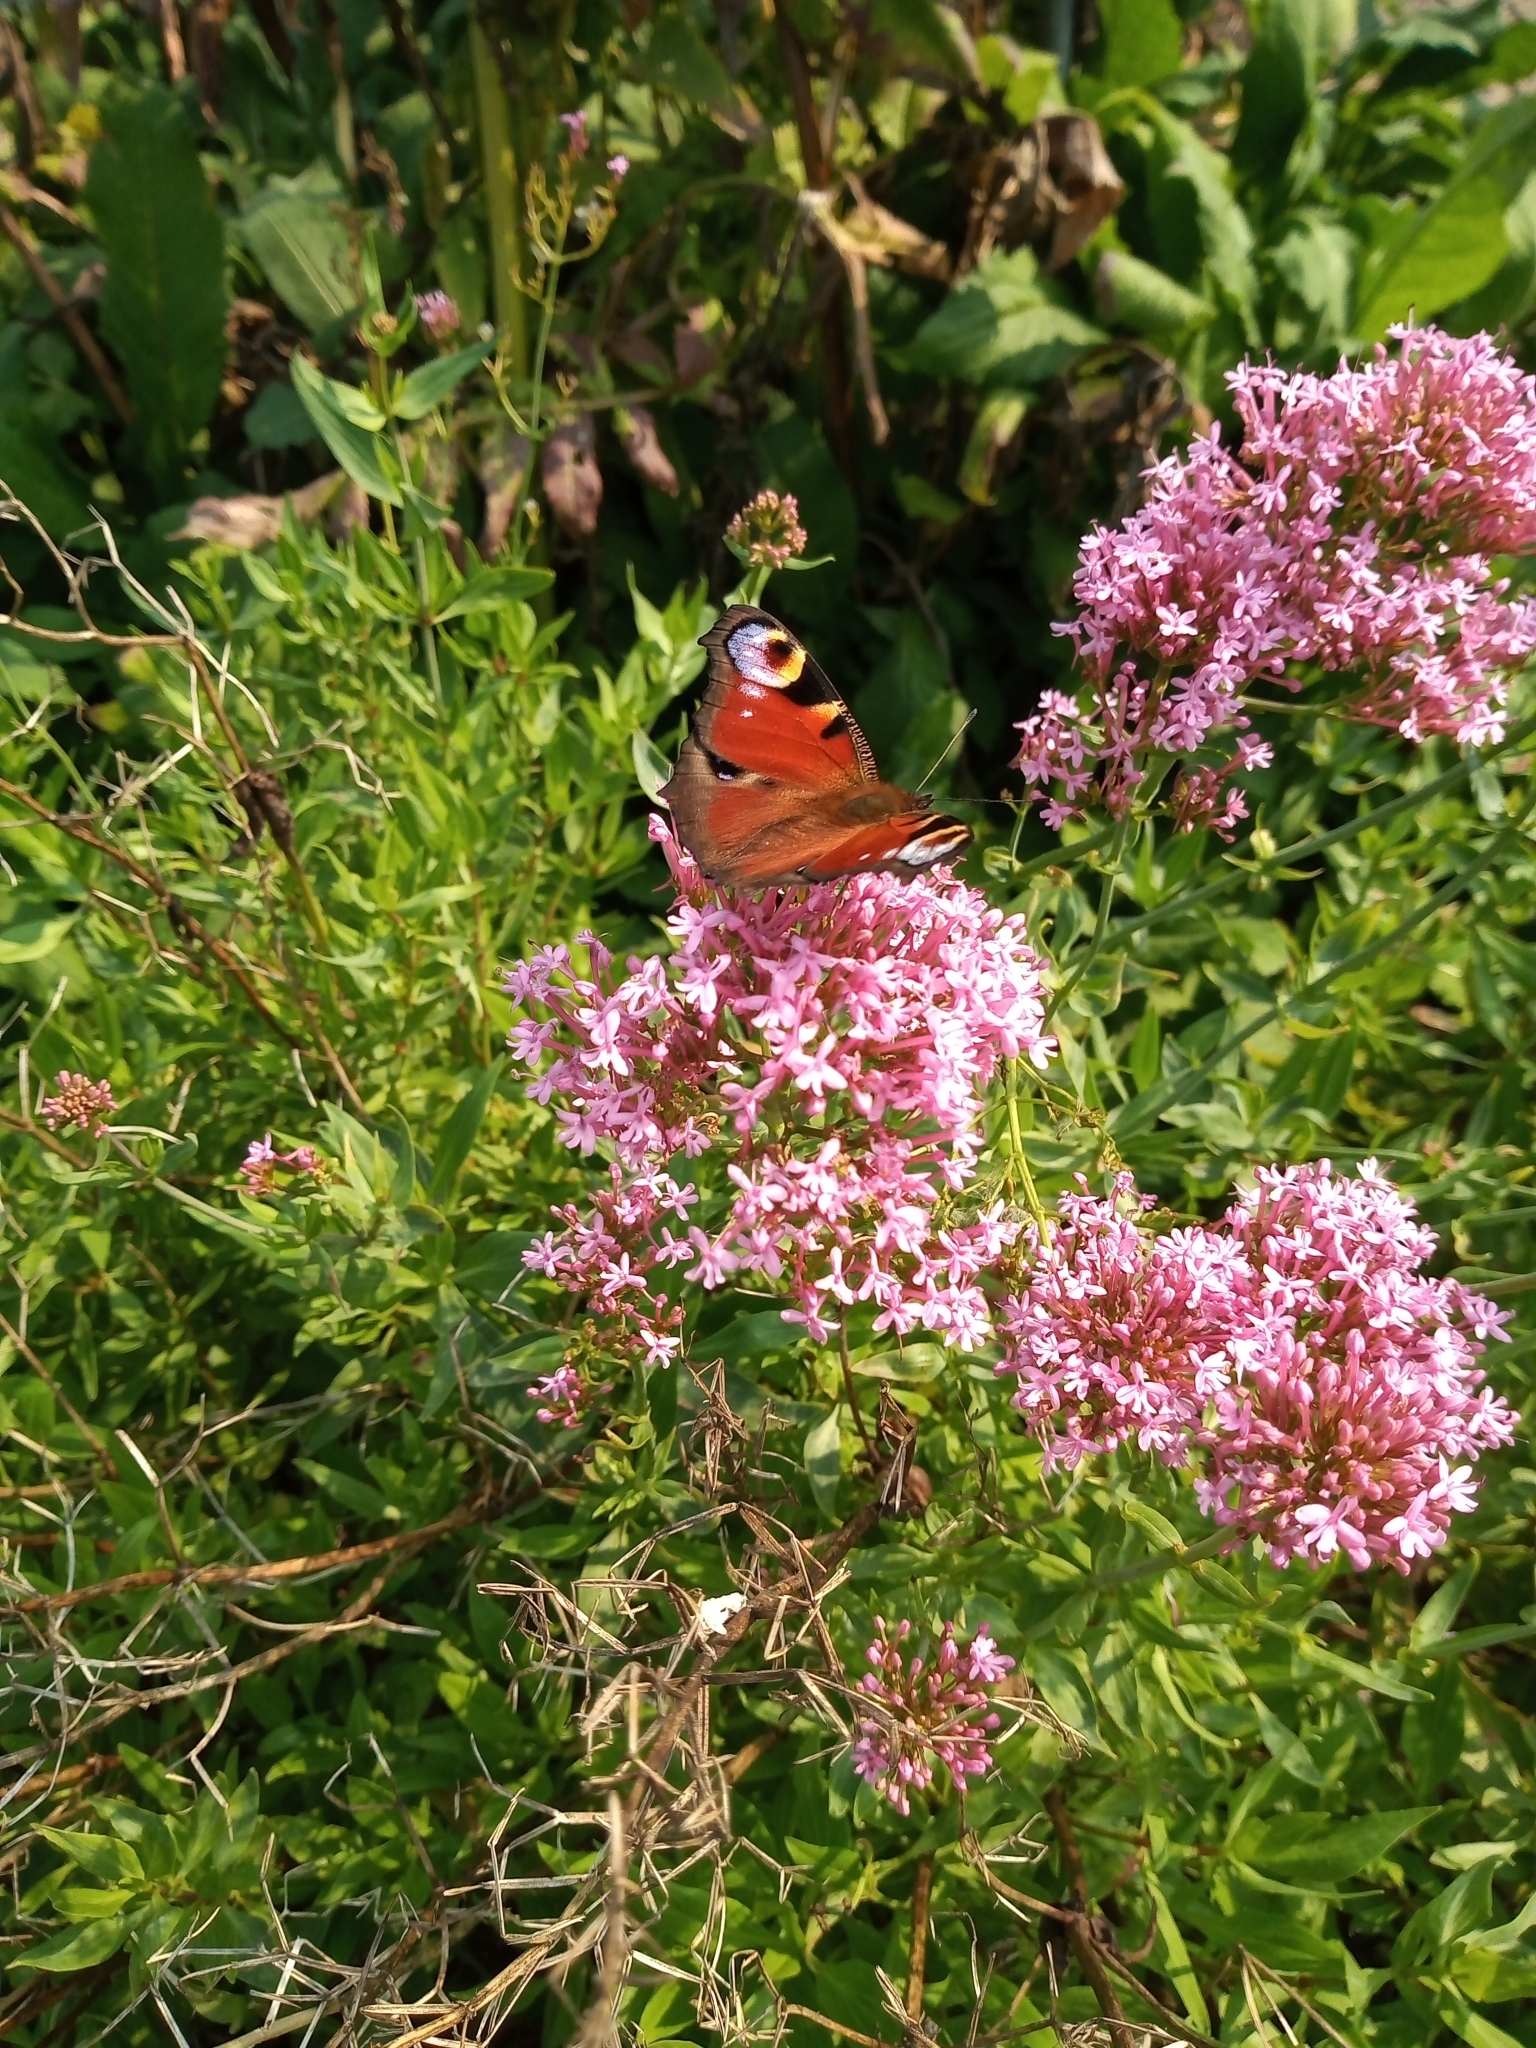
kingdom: Animalia
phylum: Arthropoda
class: Insecta
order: Lepidoptera
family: Nymphalidae
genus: Aglais
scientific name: Aglais io
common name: Peacock
